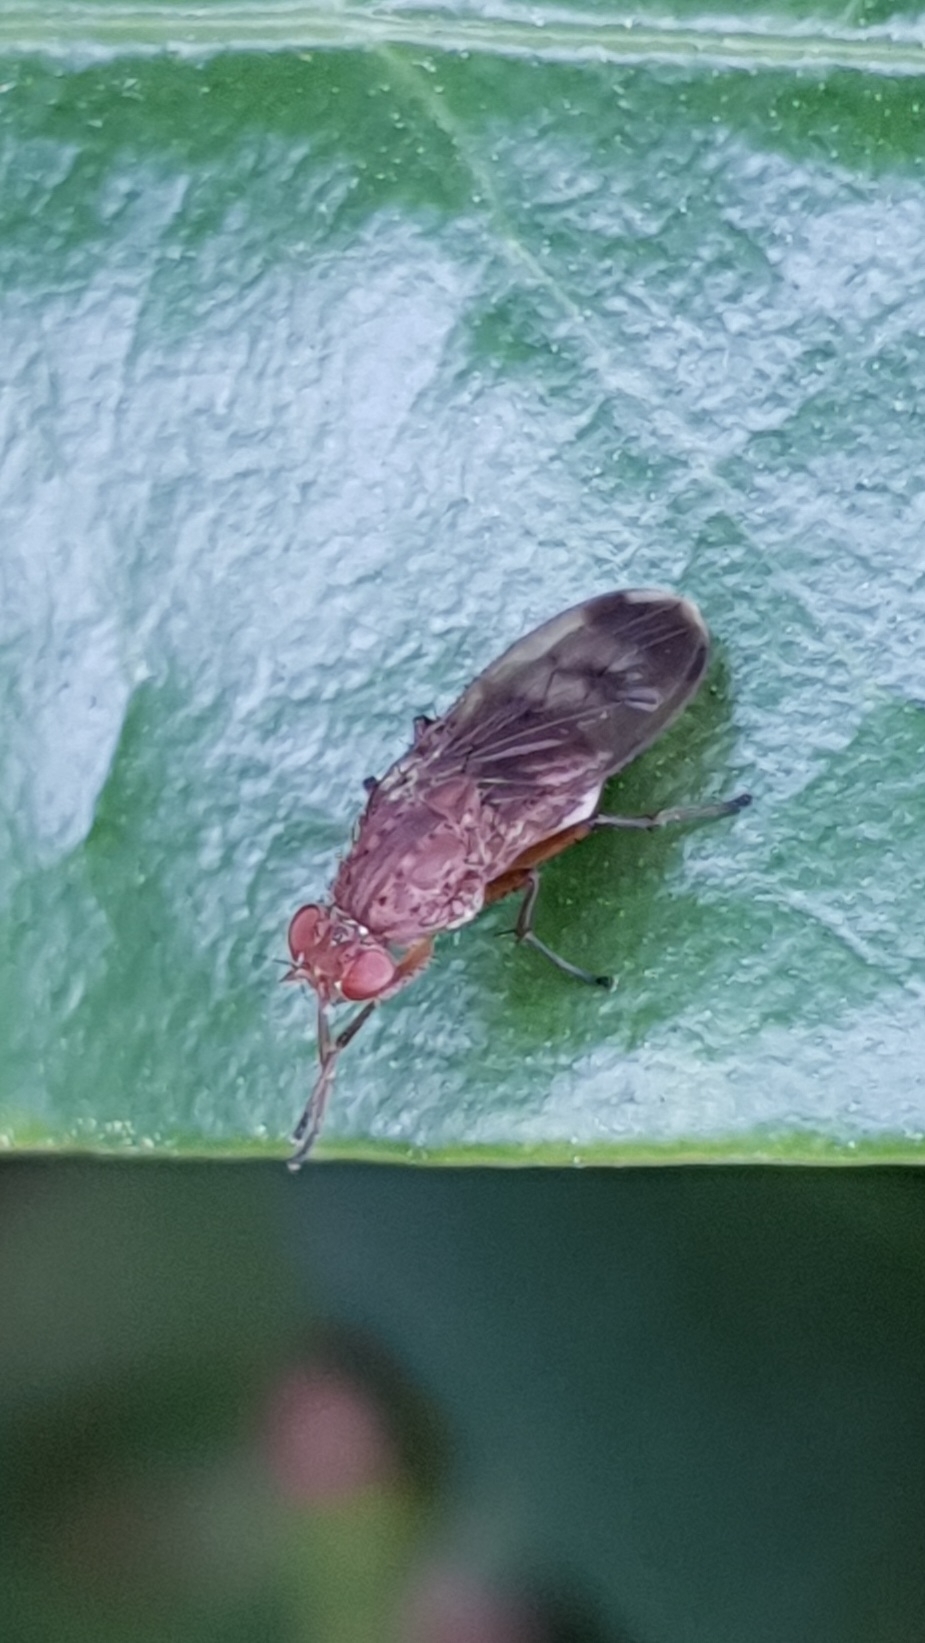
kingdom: Animalia
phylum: Arthropoda
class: Insecta
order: Diptera
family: Heleomyzidae
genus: Suillia
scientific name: Suillia variegata
